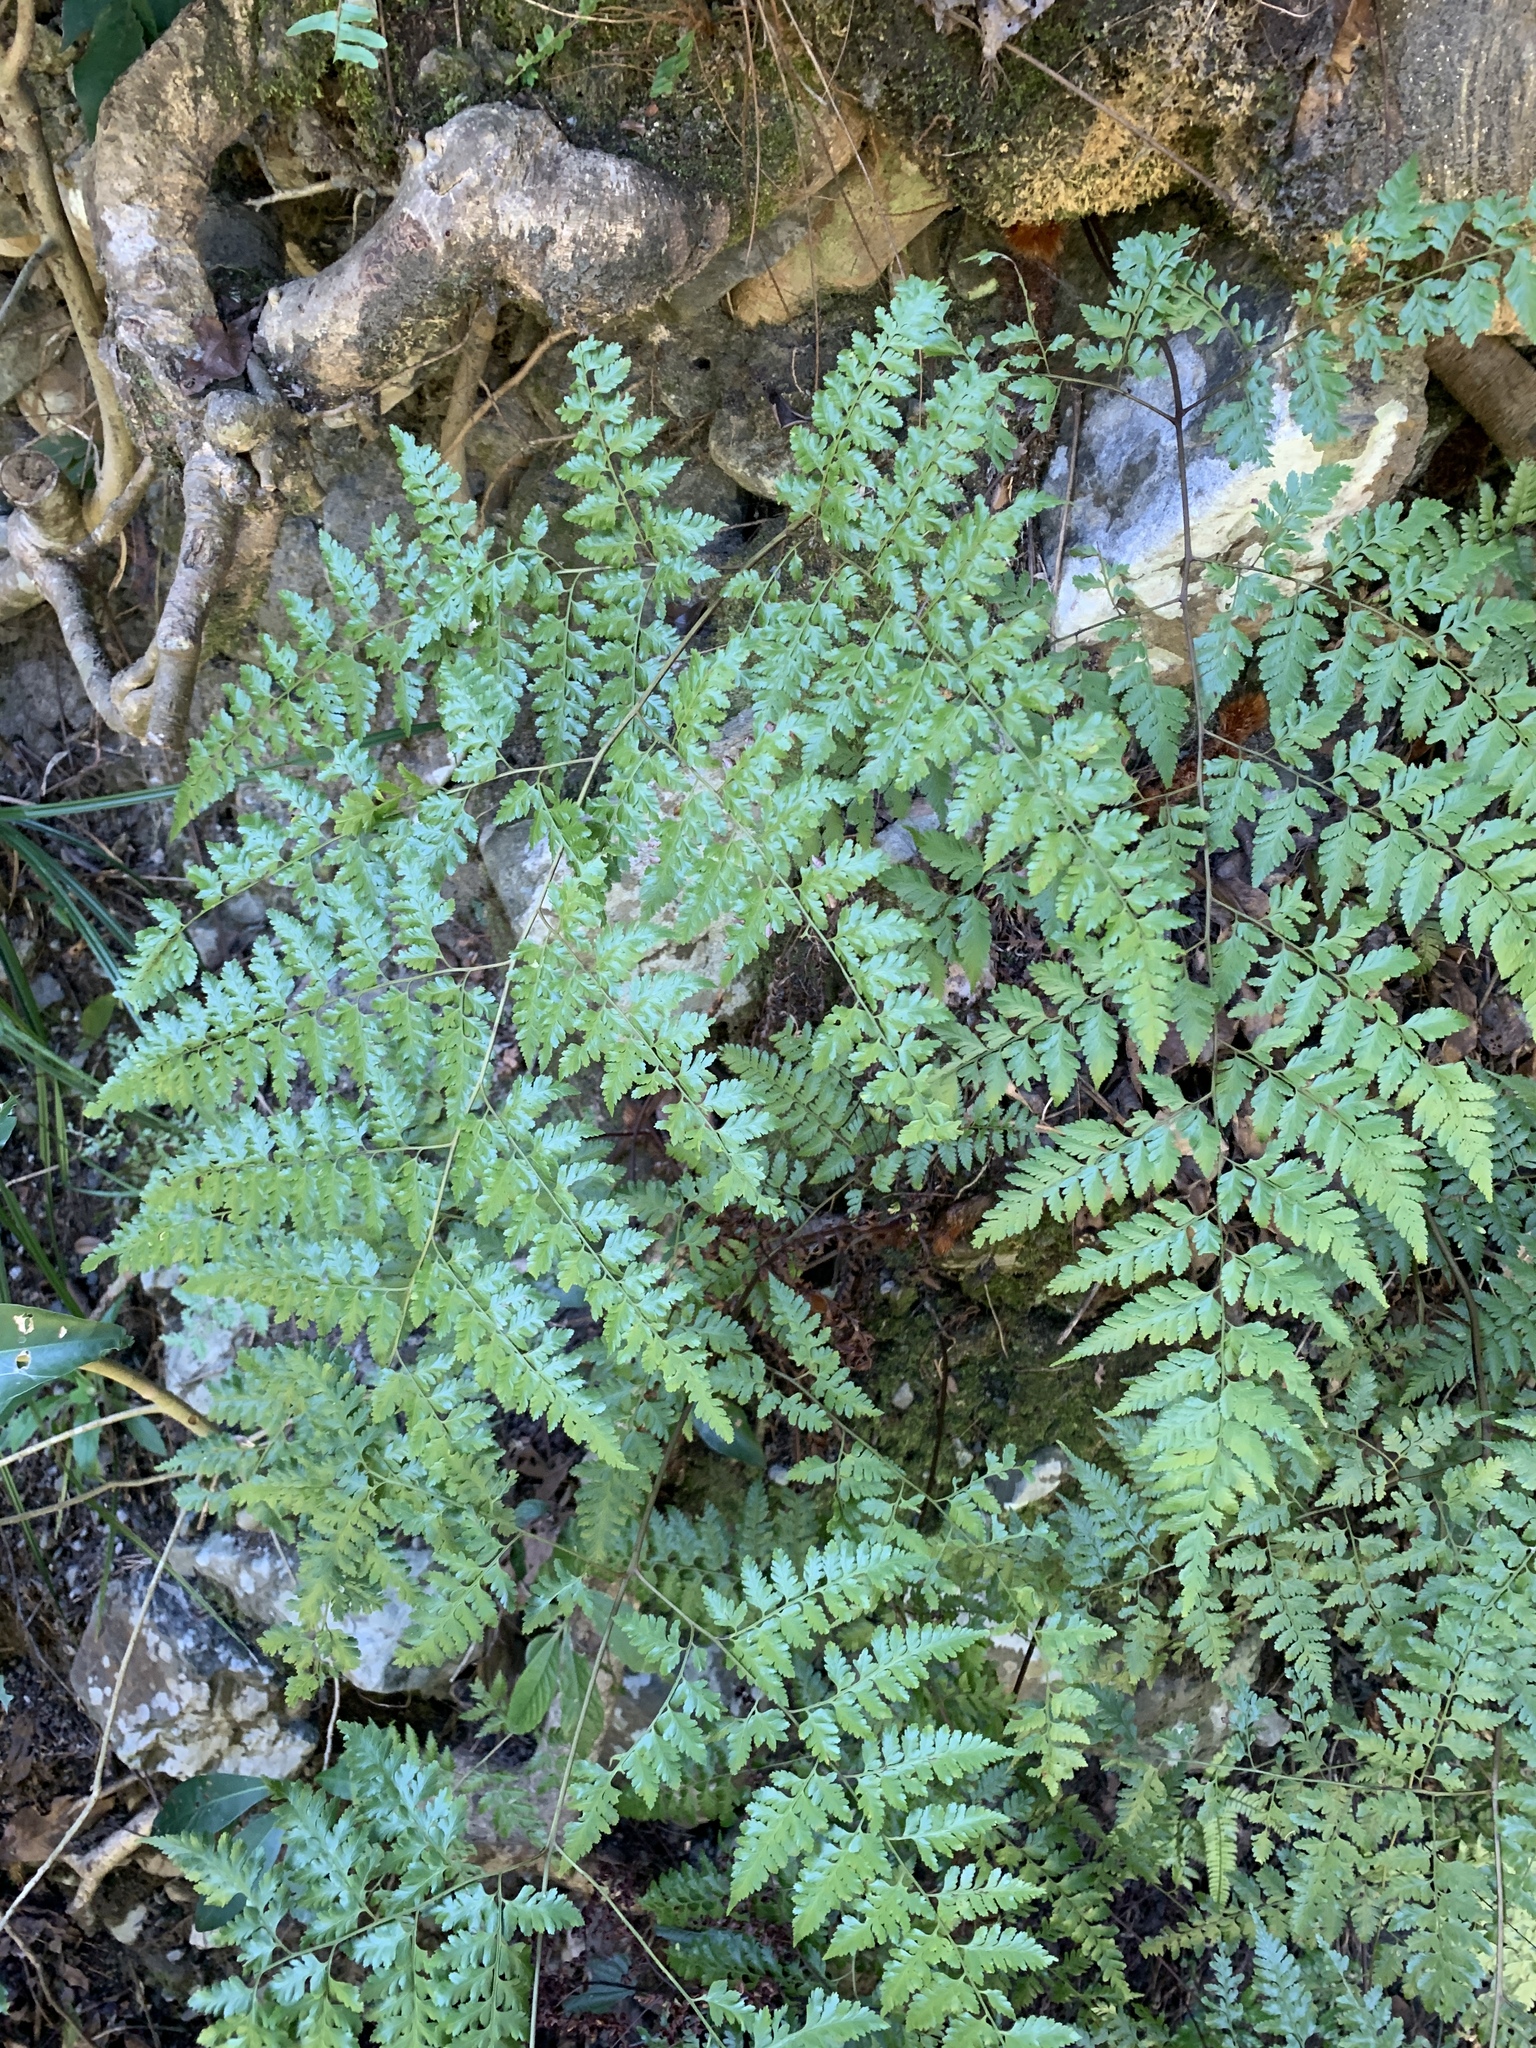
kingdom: Plantae
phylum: Tracheophyta
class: Polypodiopsida
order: Polypodiales
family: Davalliaceae
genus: Davallia
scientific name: Davallia divaricata
